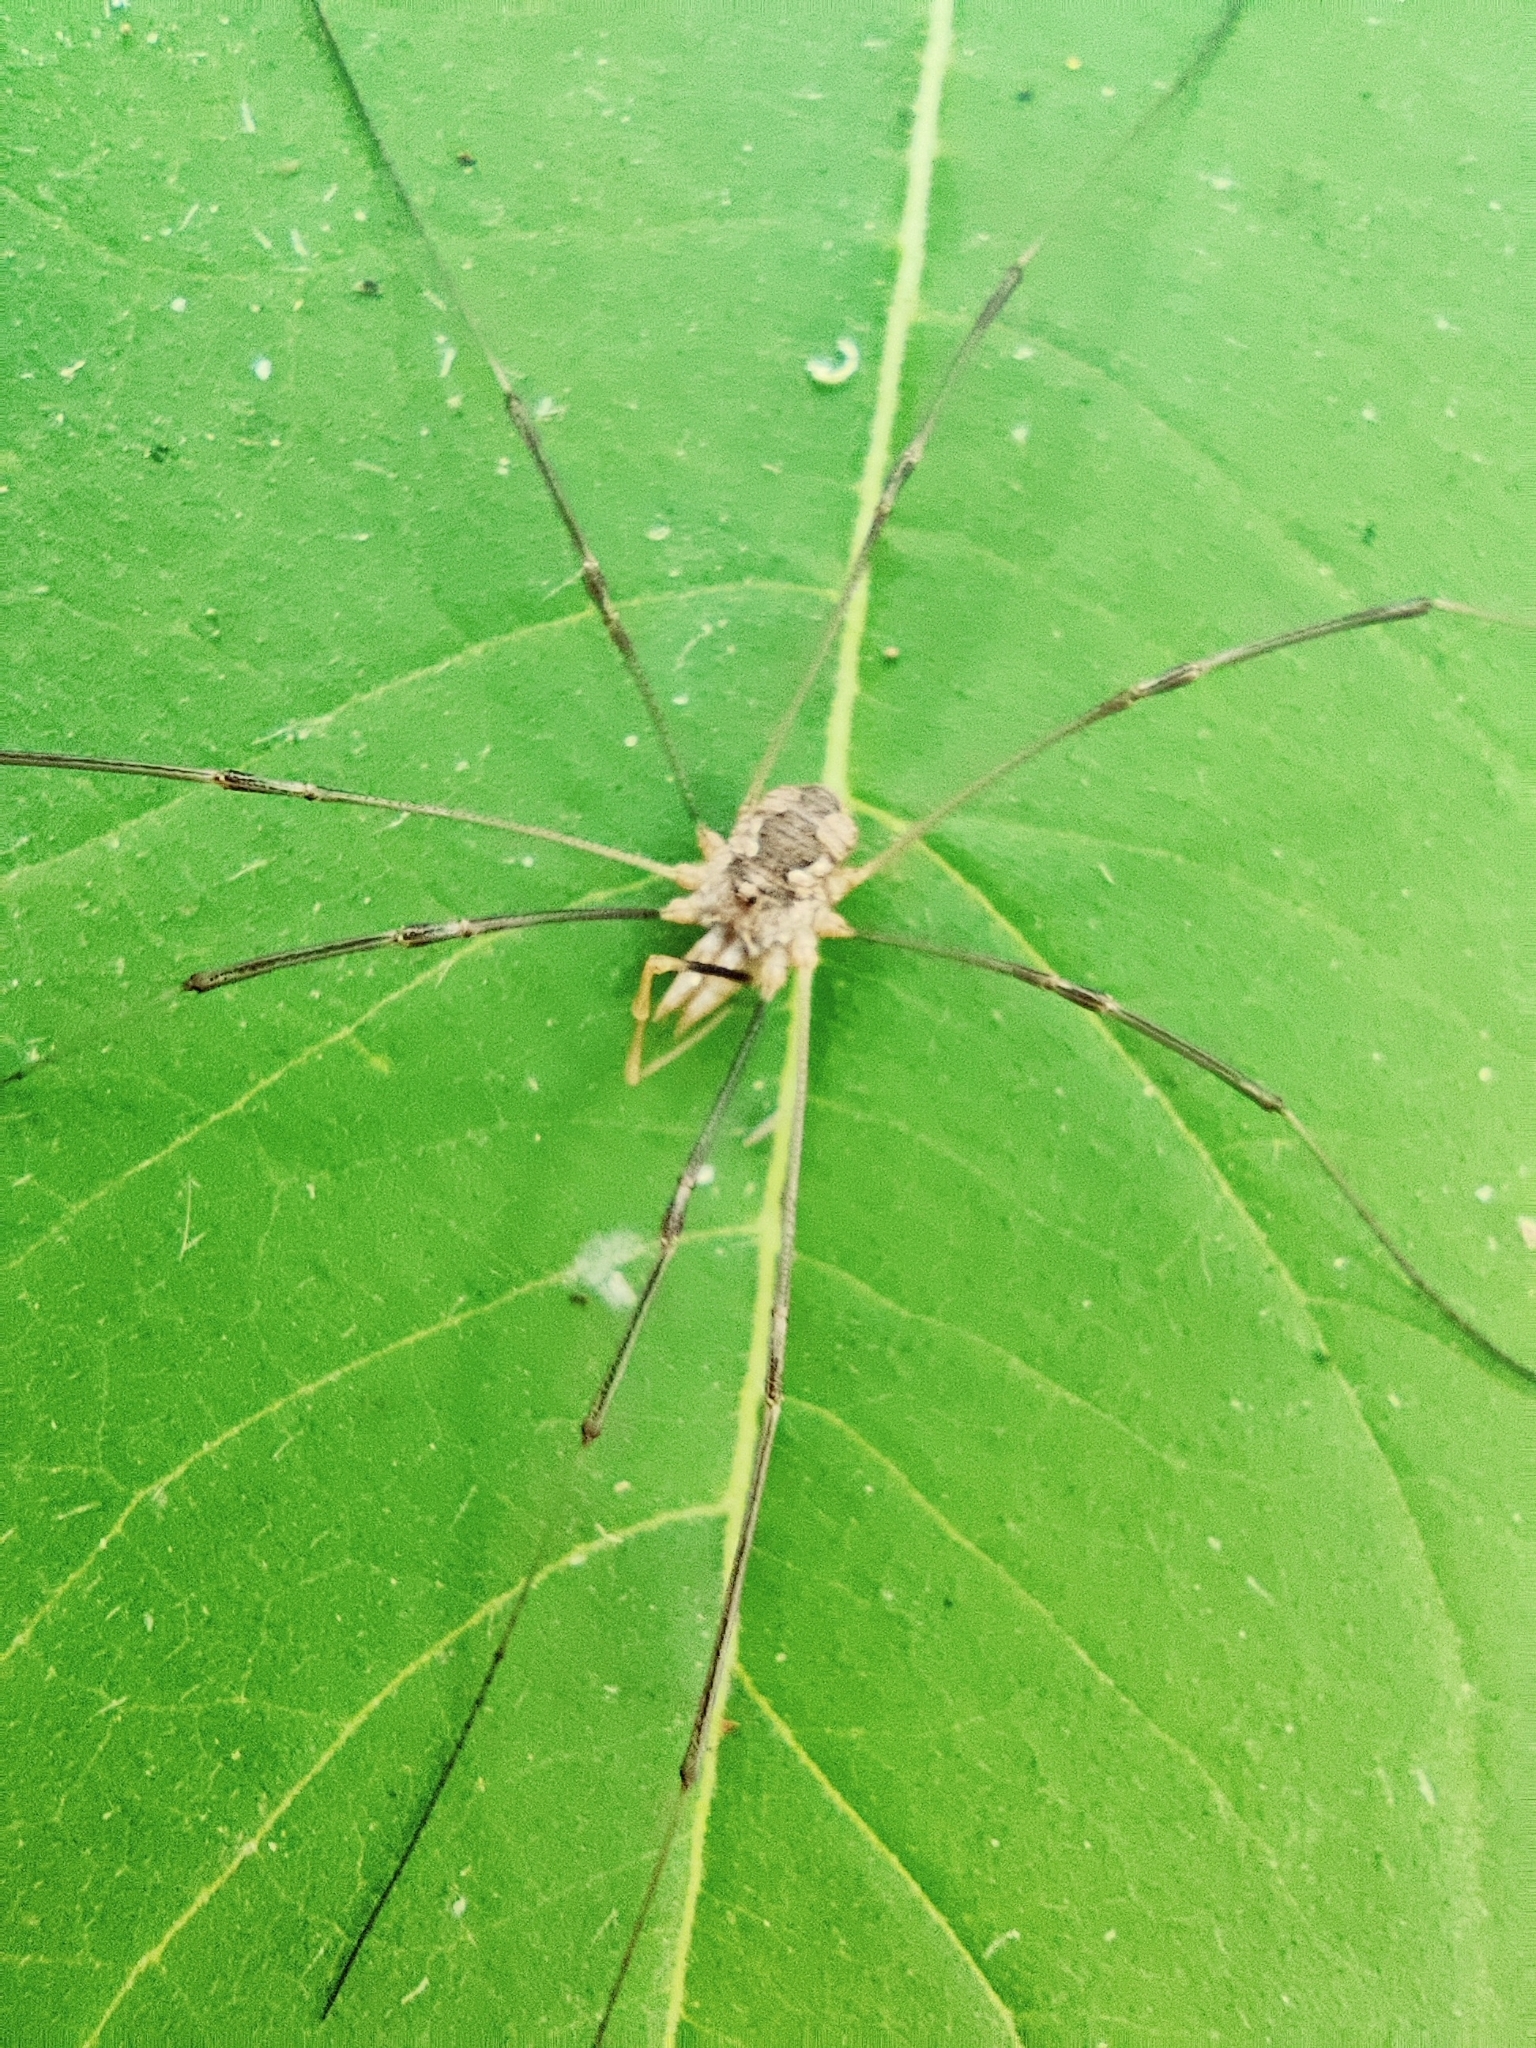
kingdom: Animalia
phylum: Arthropoda
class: Arachnida
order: Opiliones
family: Phalangiidae
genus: Phalangium
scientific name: Phalangium opilio
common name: Daddy longleg
